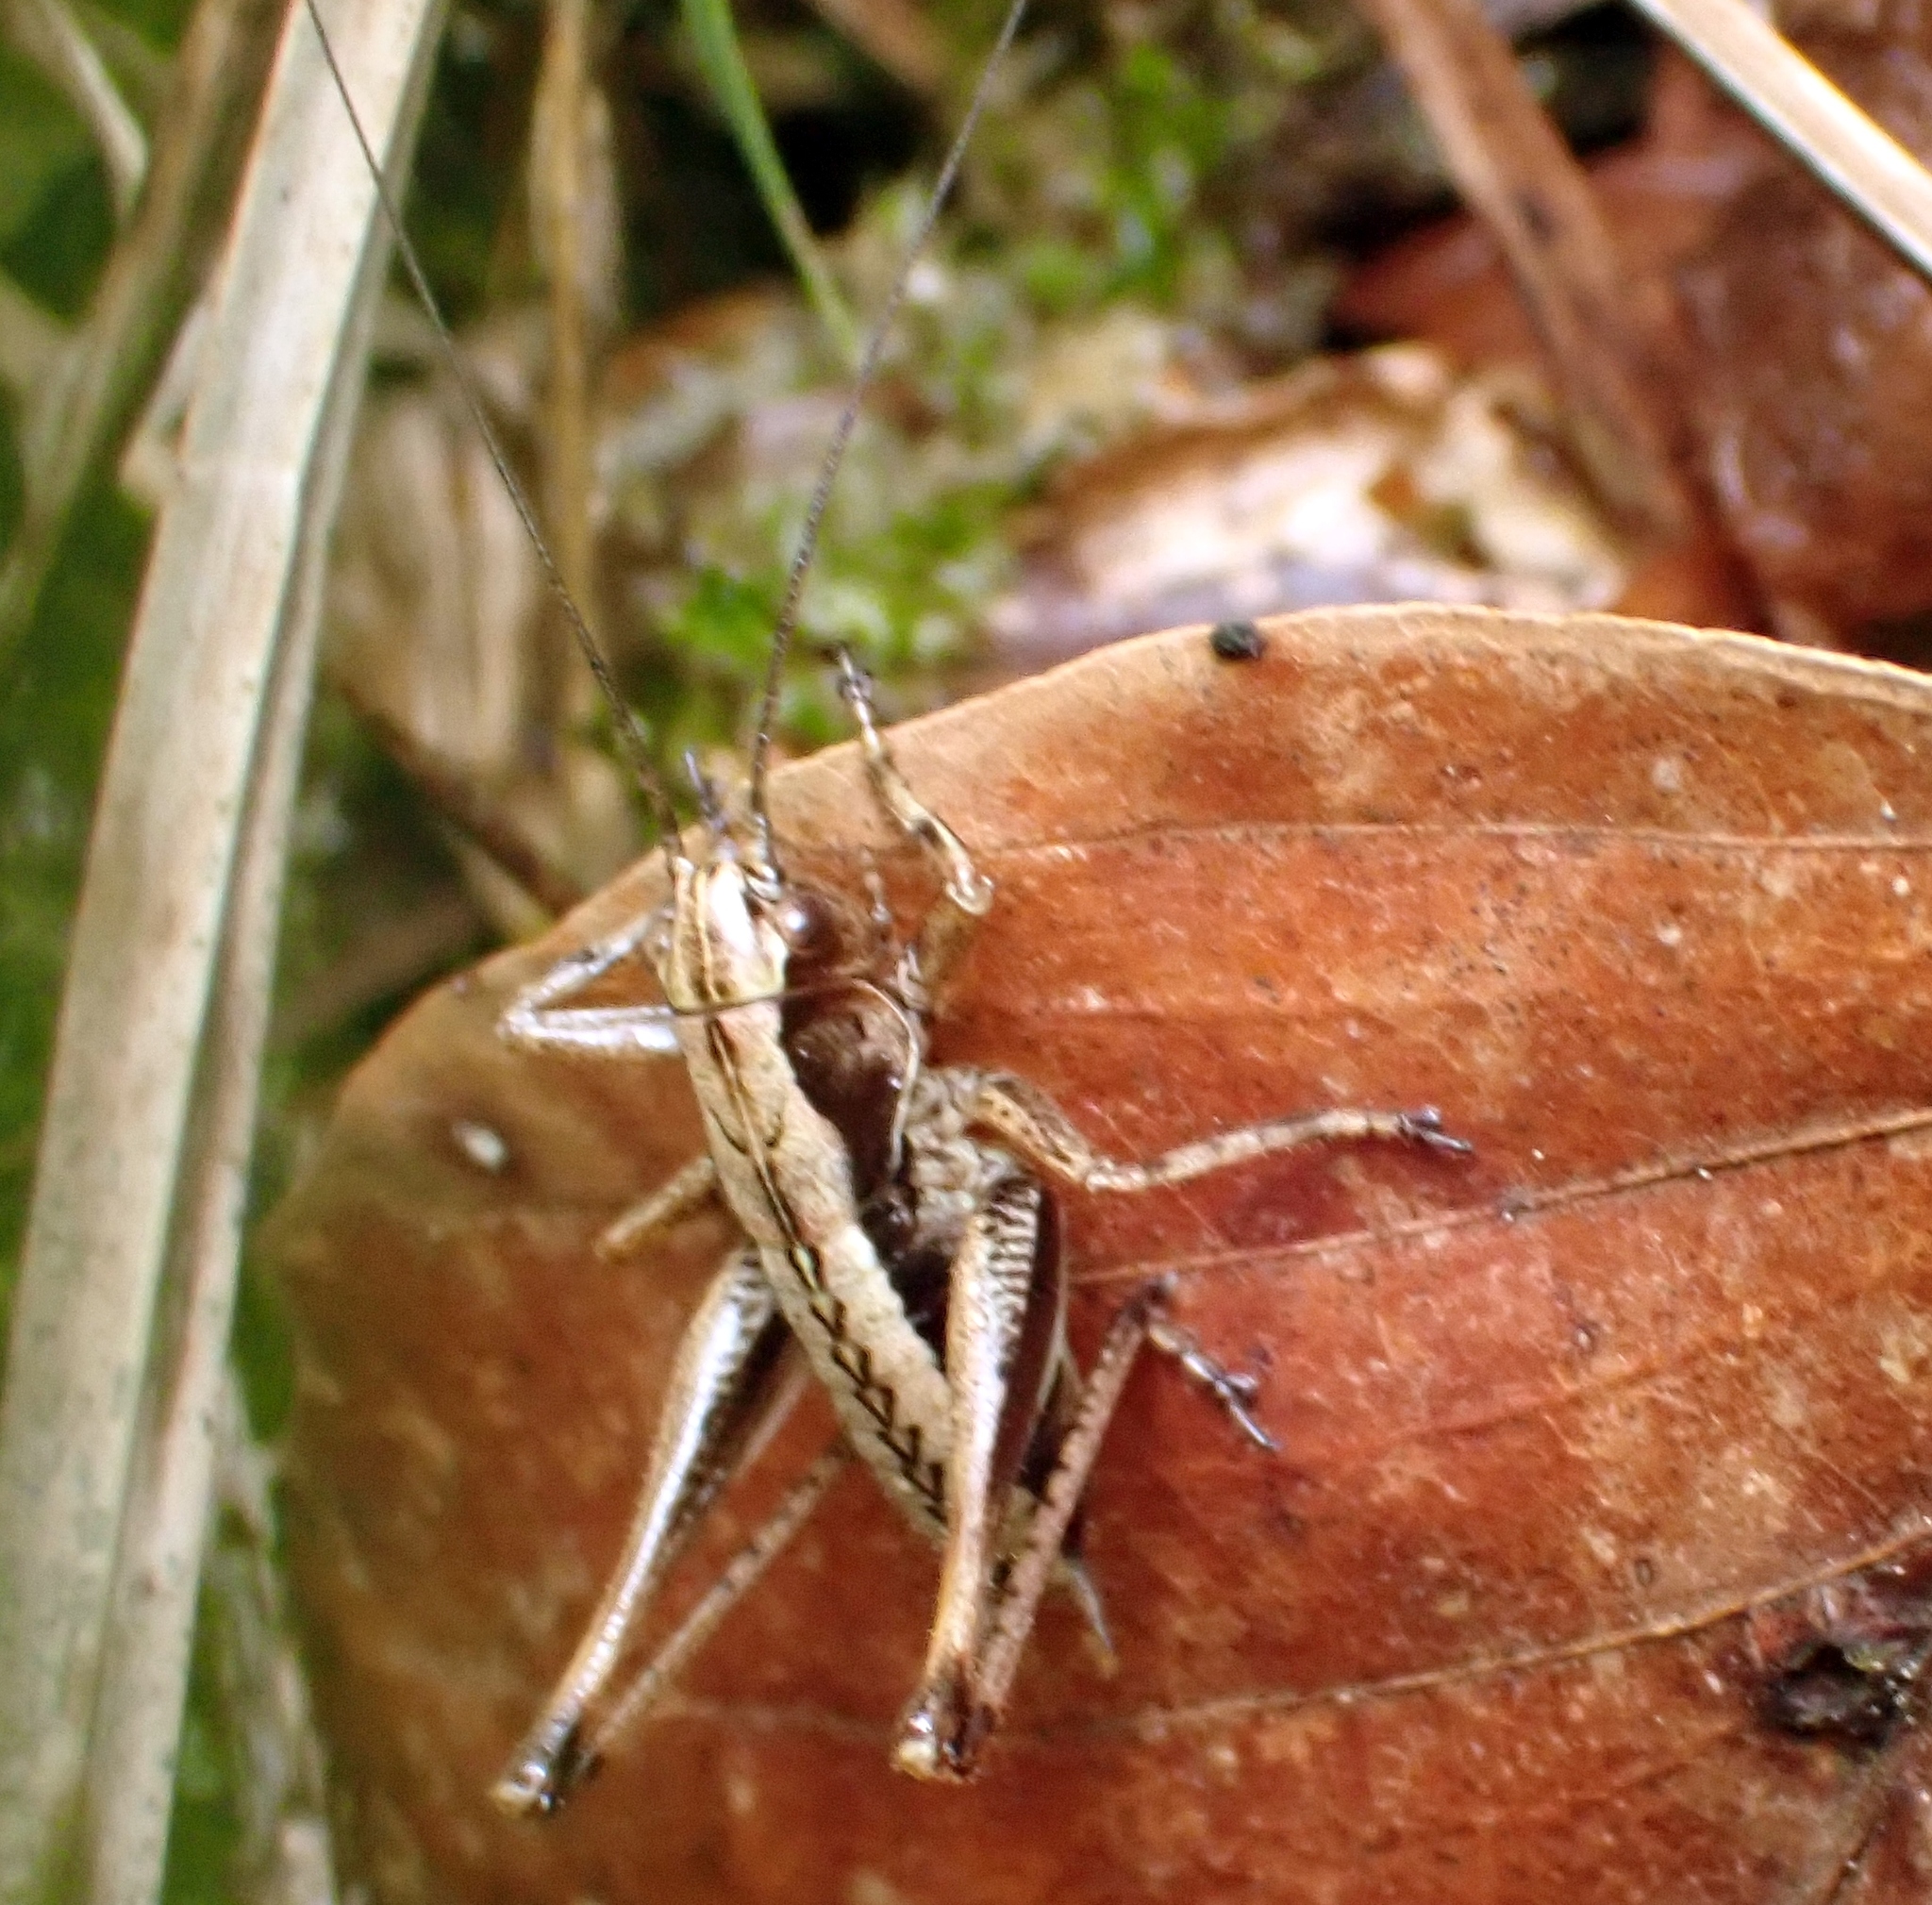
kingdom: Animalia
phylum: Arthropoda
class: Insecta
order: Orthoptera
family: Tettigoniidae
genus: Pholidoptera
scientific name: Pholidoptera griseoaptera
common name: Dark bush-cricket
